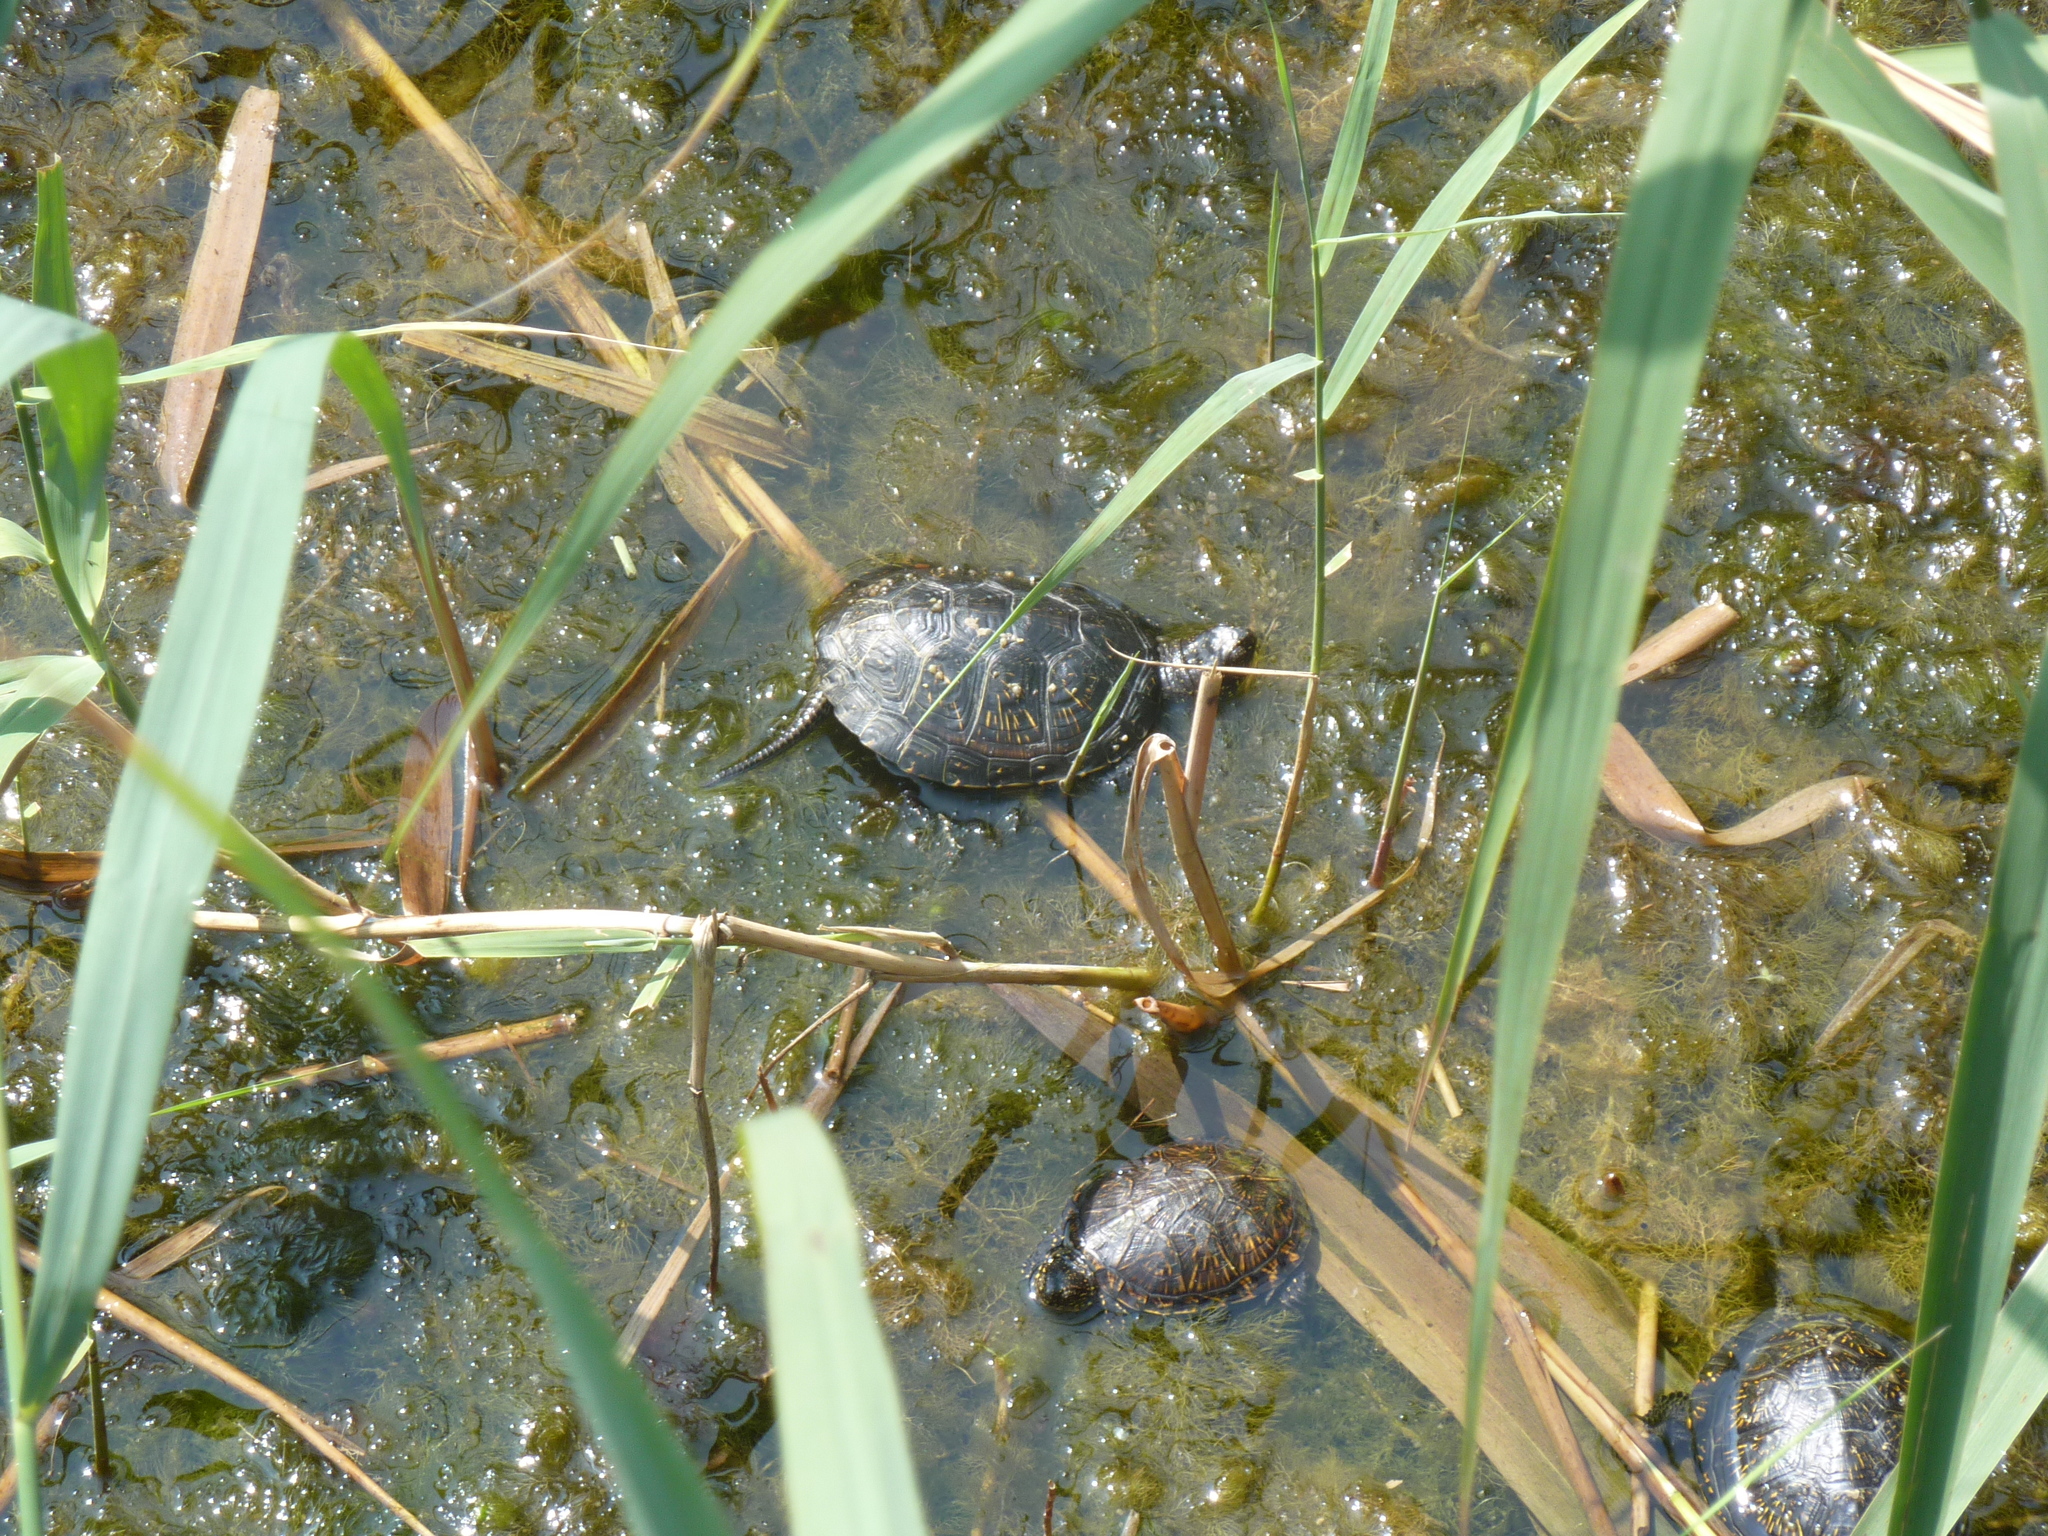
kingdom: Animalia
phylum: Chordata
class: Testudines
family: Emydidae
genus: Emys
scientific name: Emys orbicularis
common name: European pond turtle
